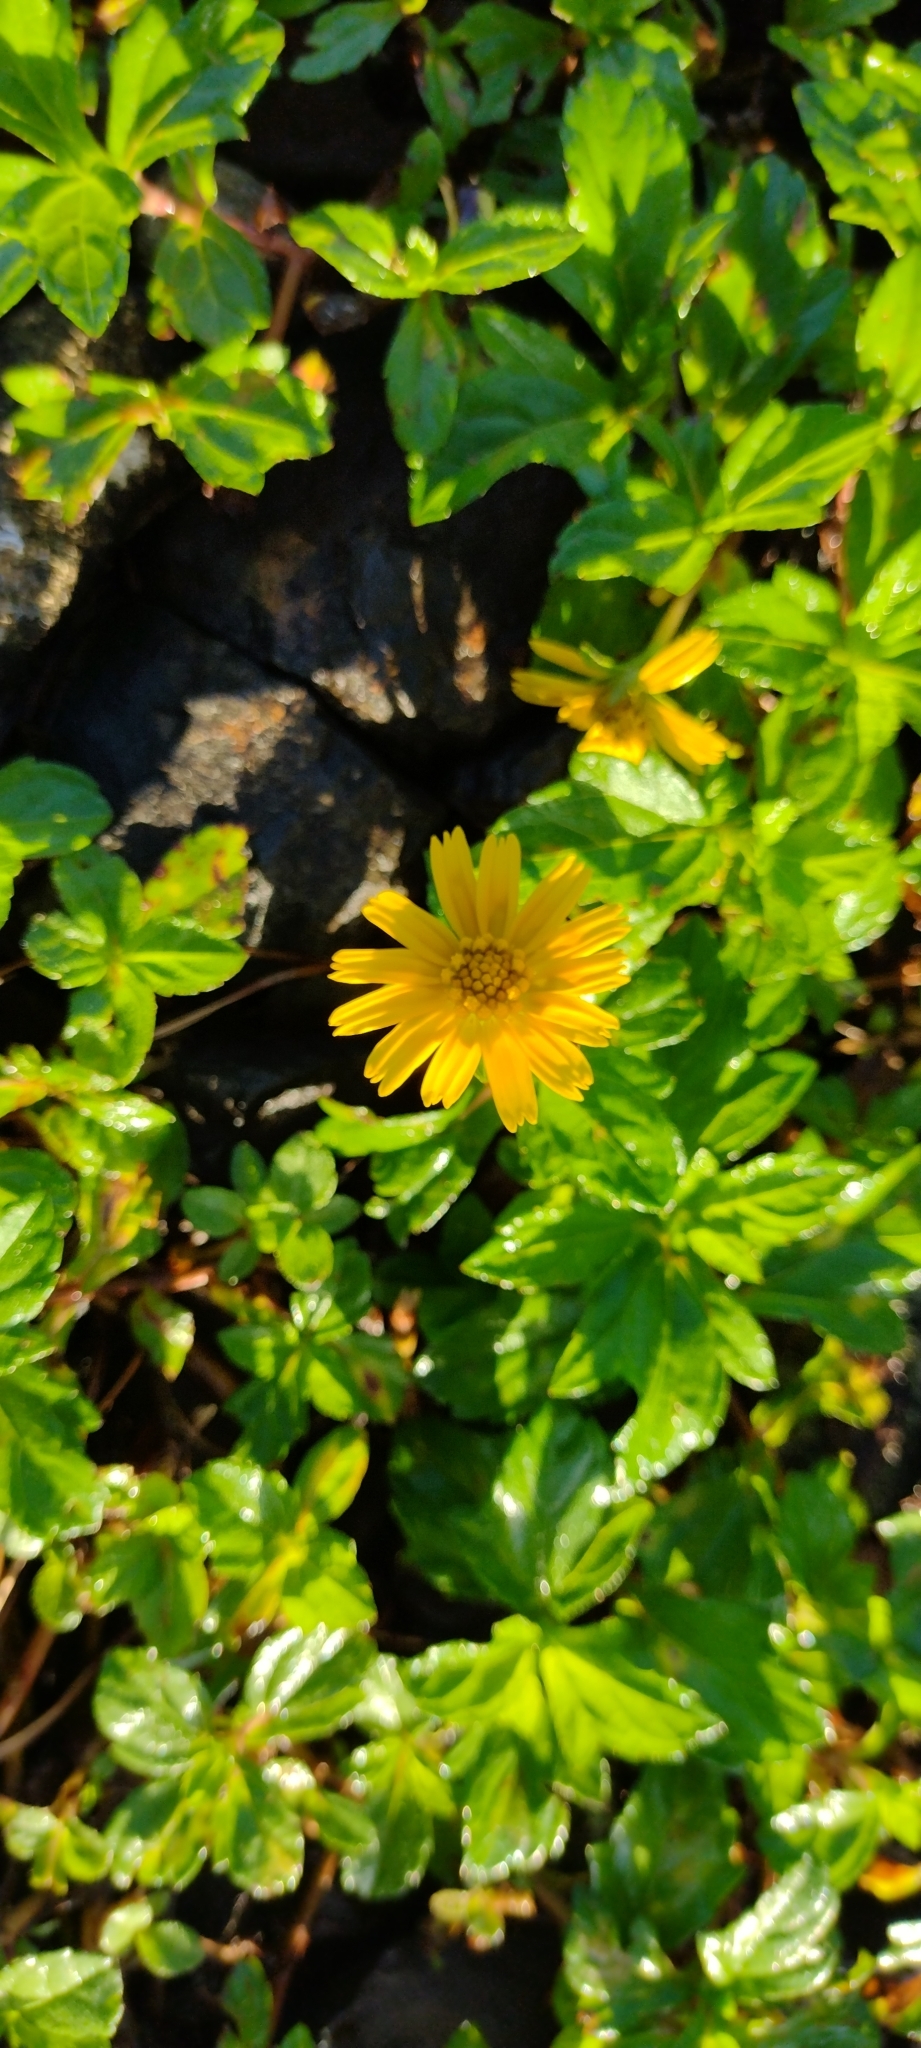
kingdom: Plantae
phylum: Tracheophyta
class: Magnoliopsida
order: Asterales
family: Asteraceae
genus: Sphagneticola
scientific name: Sphagneticola trilobata
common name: Bay biscayne creeping-oxeye
